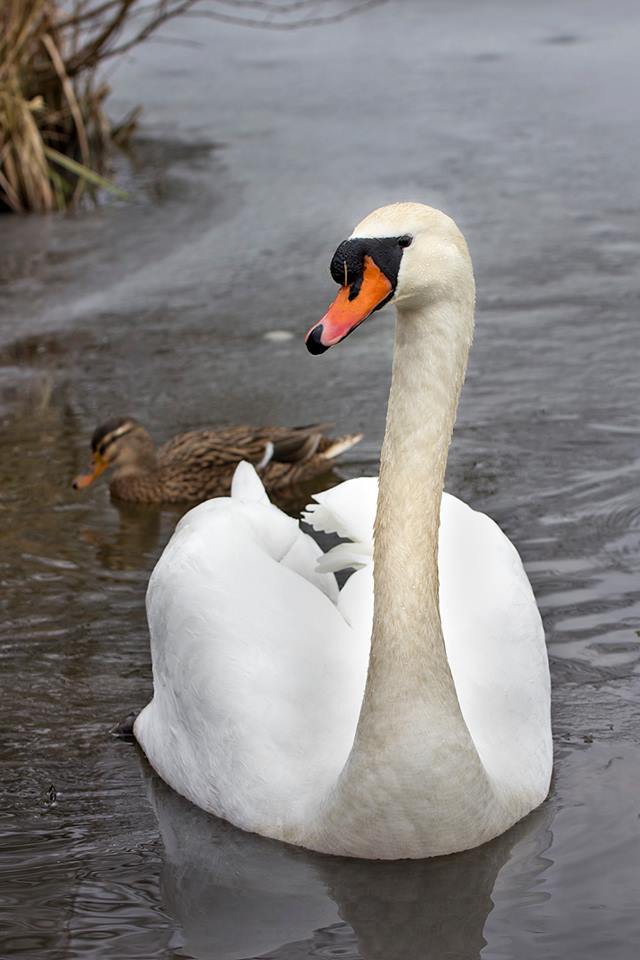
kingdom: Animalia
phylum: Chordata
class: Aves
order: Anseriformes
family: Anatidae
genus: Cygnus
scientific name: Cygnus olor
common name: Mute swan
